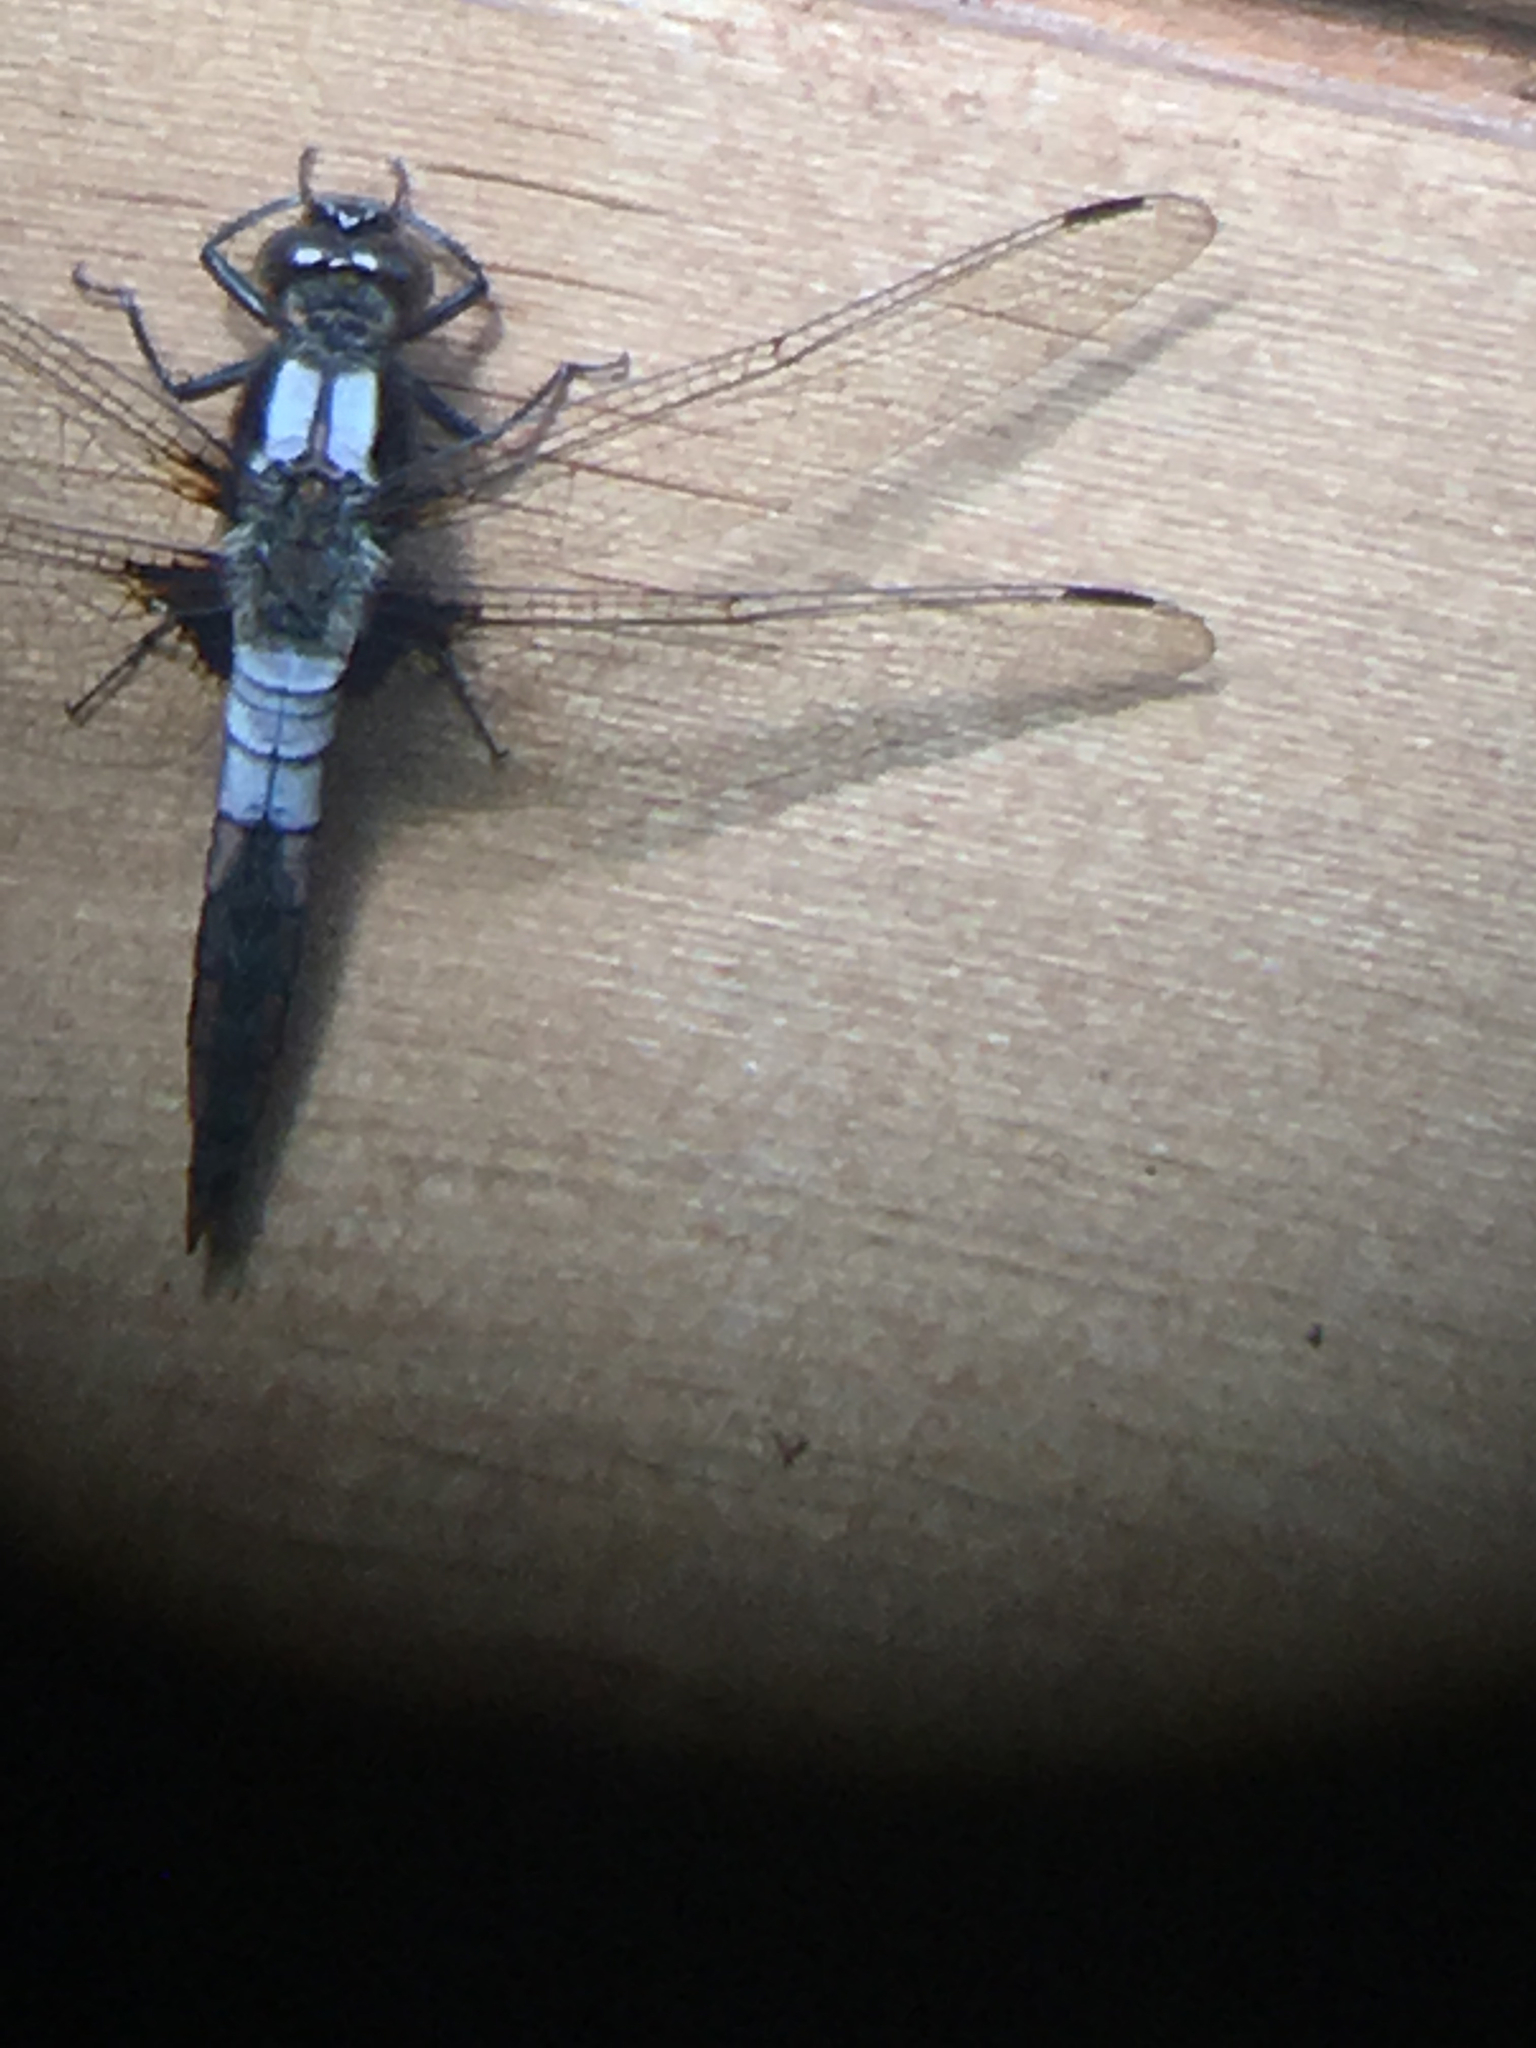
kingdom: Animalia
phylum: Arthropoda
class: Insecta
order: Odonata
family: Libellulidae
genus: Ladona
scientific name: Ladona julia
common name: Chalk-fronted corporal
